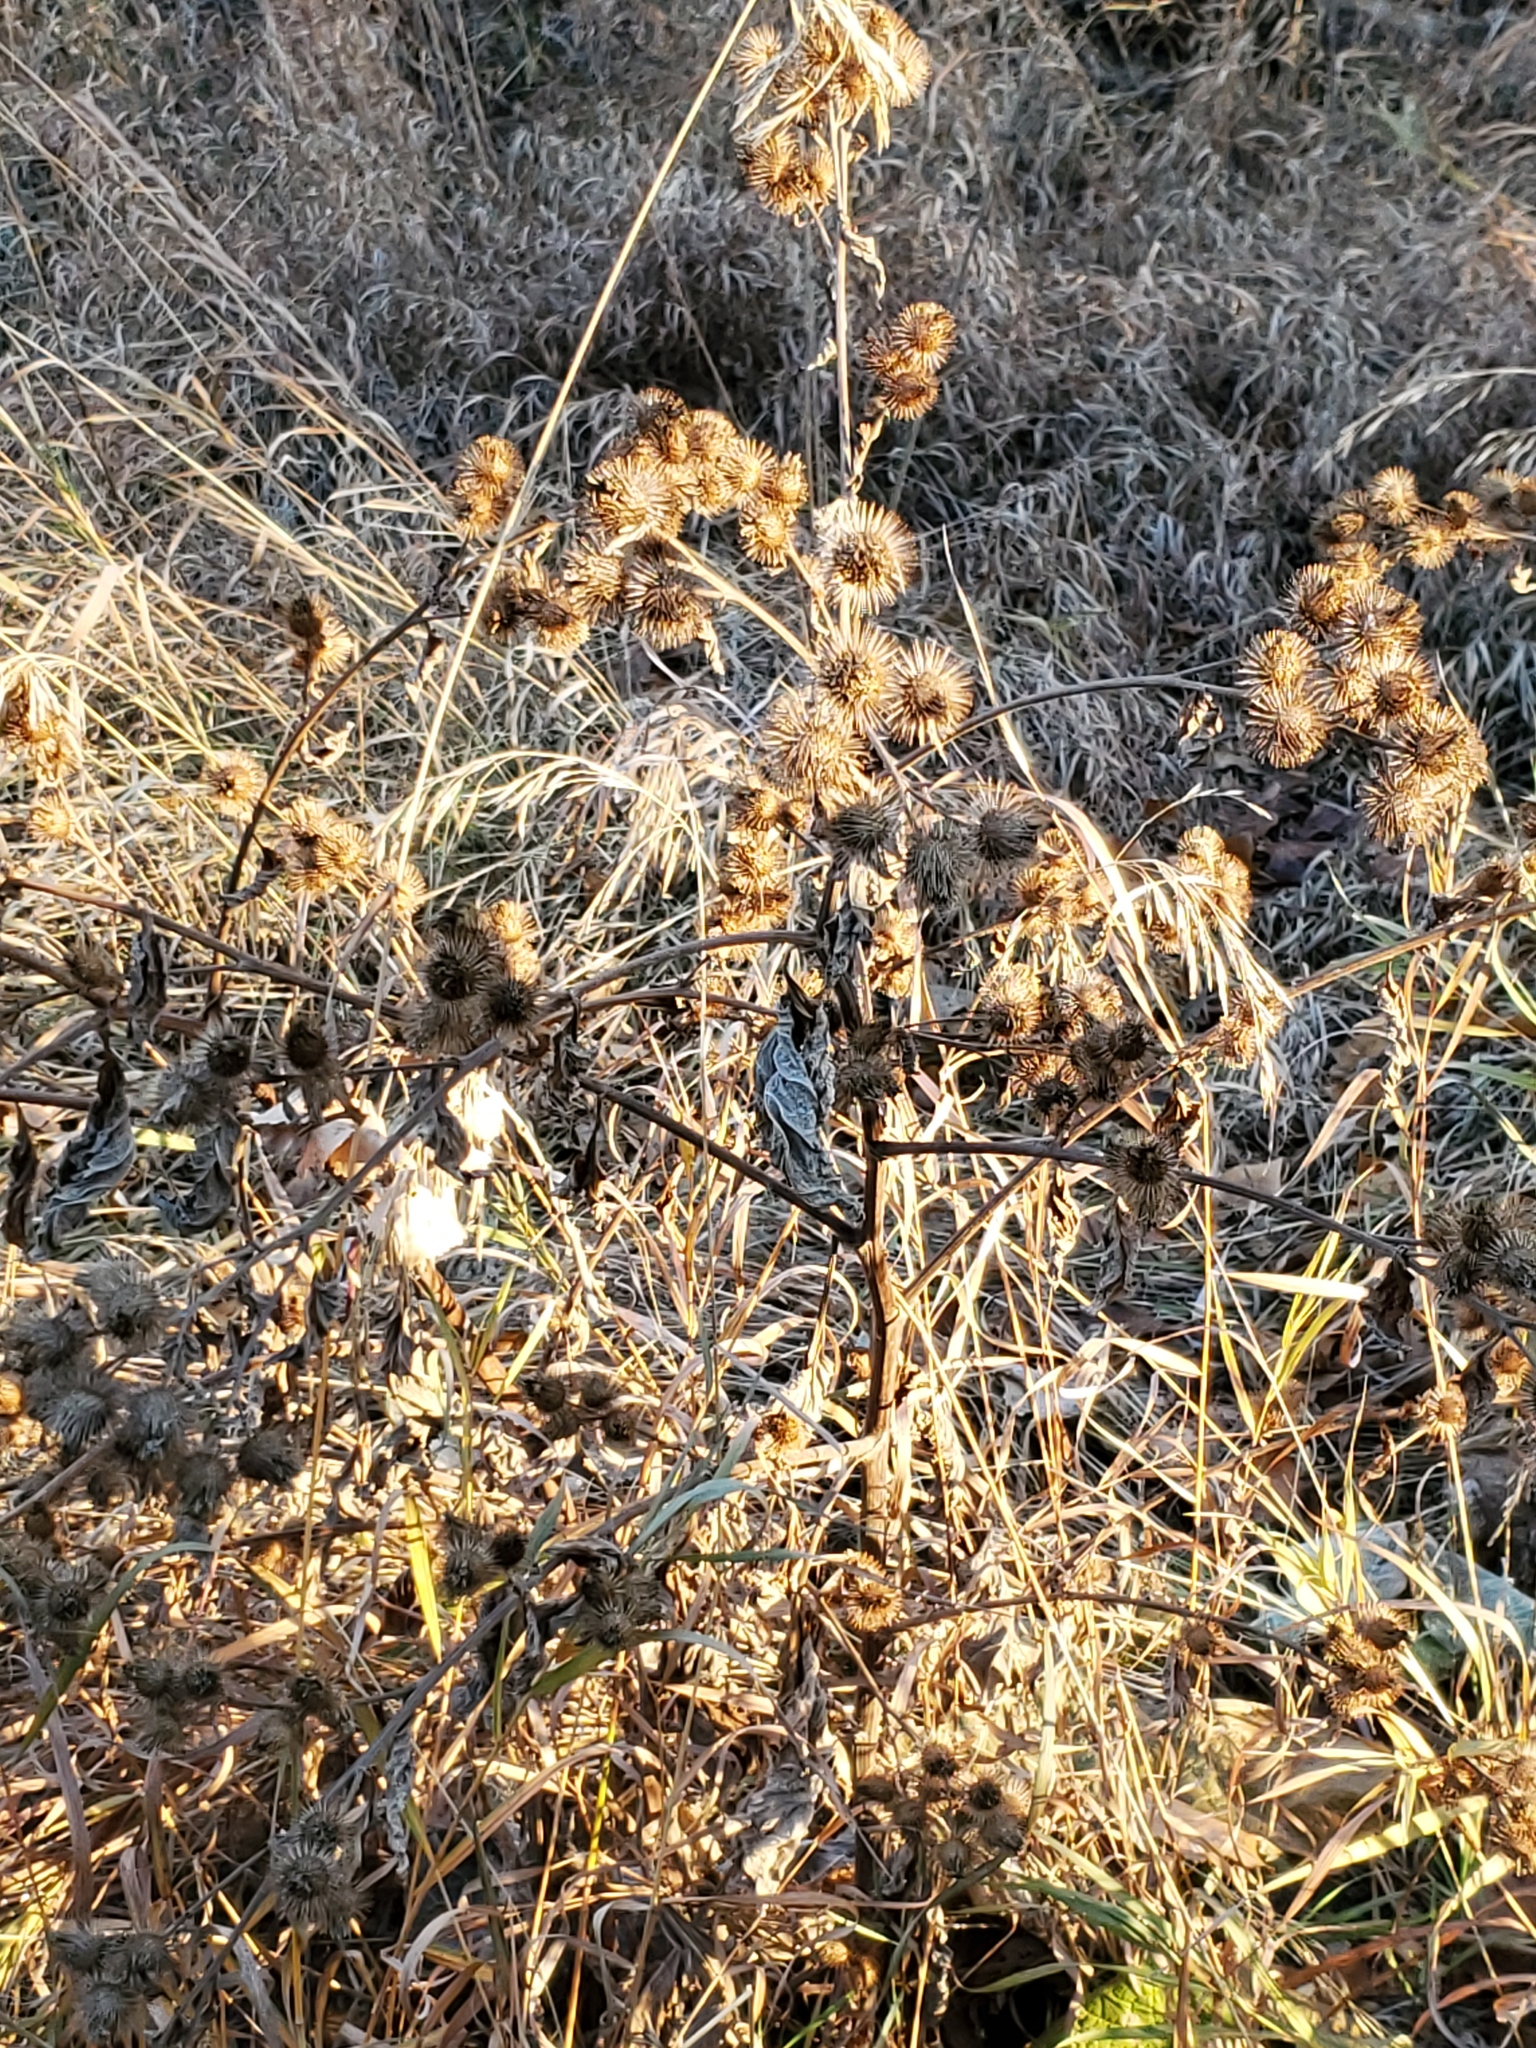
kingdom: Plantae
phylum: Tracheophyta
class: Magnoliopsida
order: Asterales
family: Asteraceae
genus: Arctium
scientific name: Arctium minus
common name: Lesser burdock
